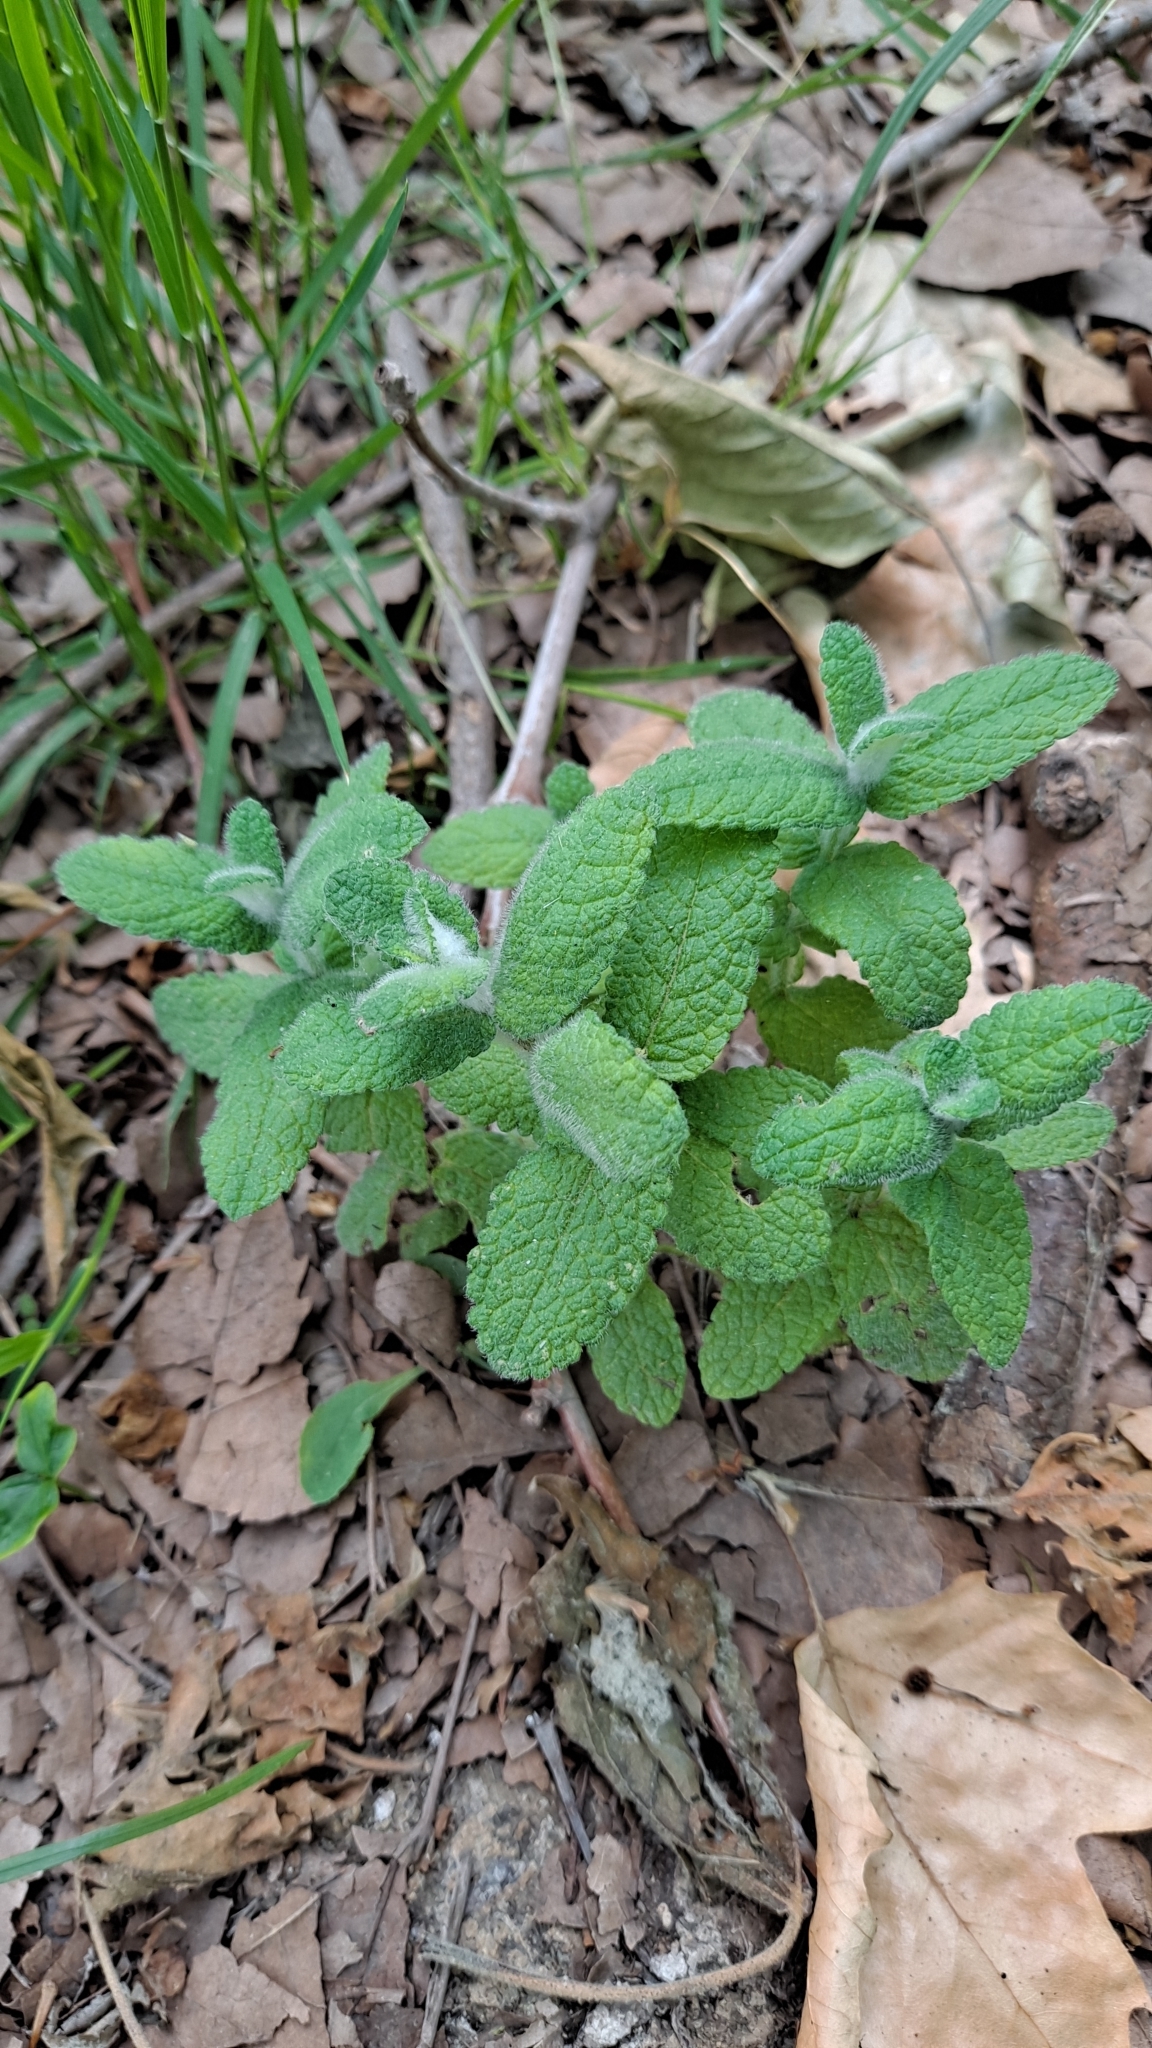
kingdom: Plantae
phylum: Tracheophyta
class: Magnoliopsida
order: Lamiales
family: Lamiaceae
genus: Mentha
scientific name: Mentha suaveolens
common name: Apple mint
